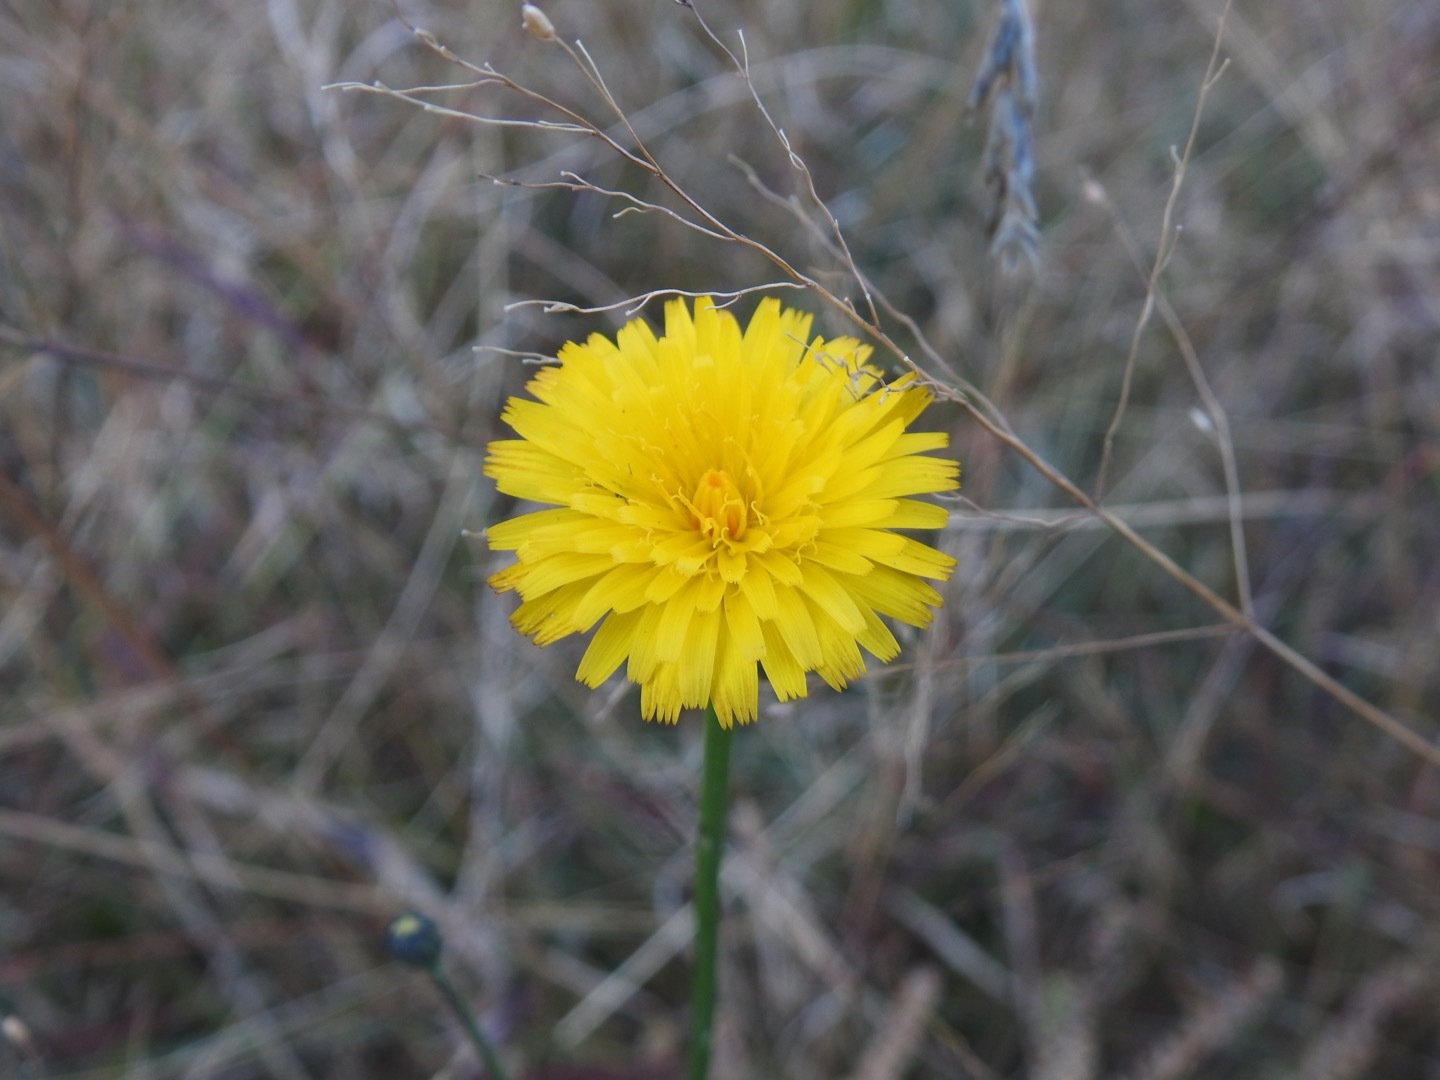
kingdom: Plantae
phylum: Tracheophyta
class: Magnoliopsida
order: Asterales
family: Asteraceae
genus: Hypochaeris
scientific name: Hypochaeris radicata
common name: Flatweed
